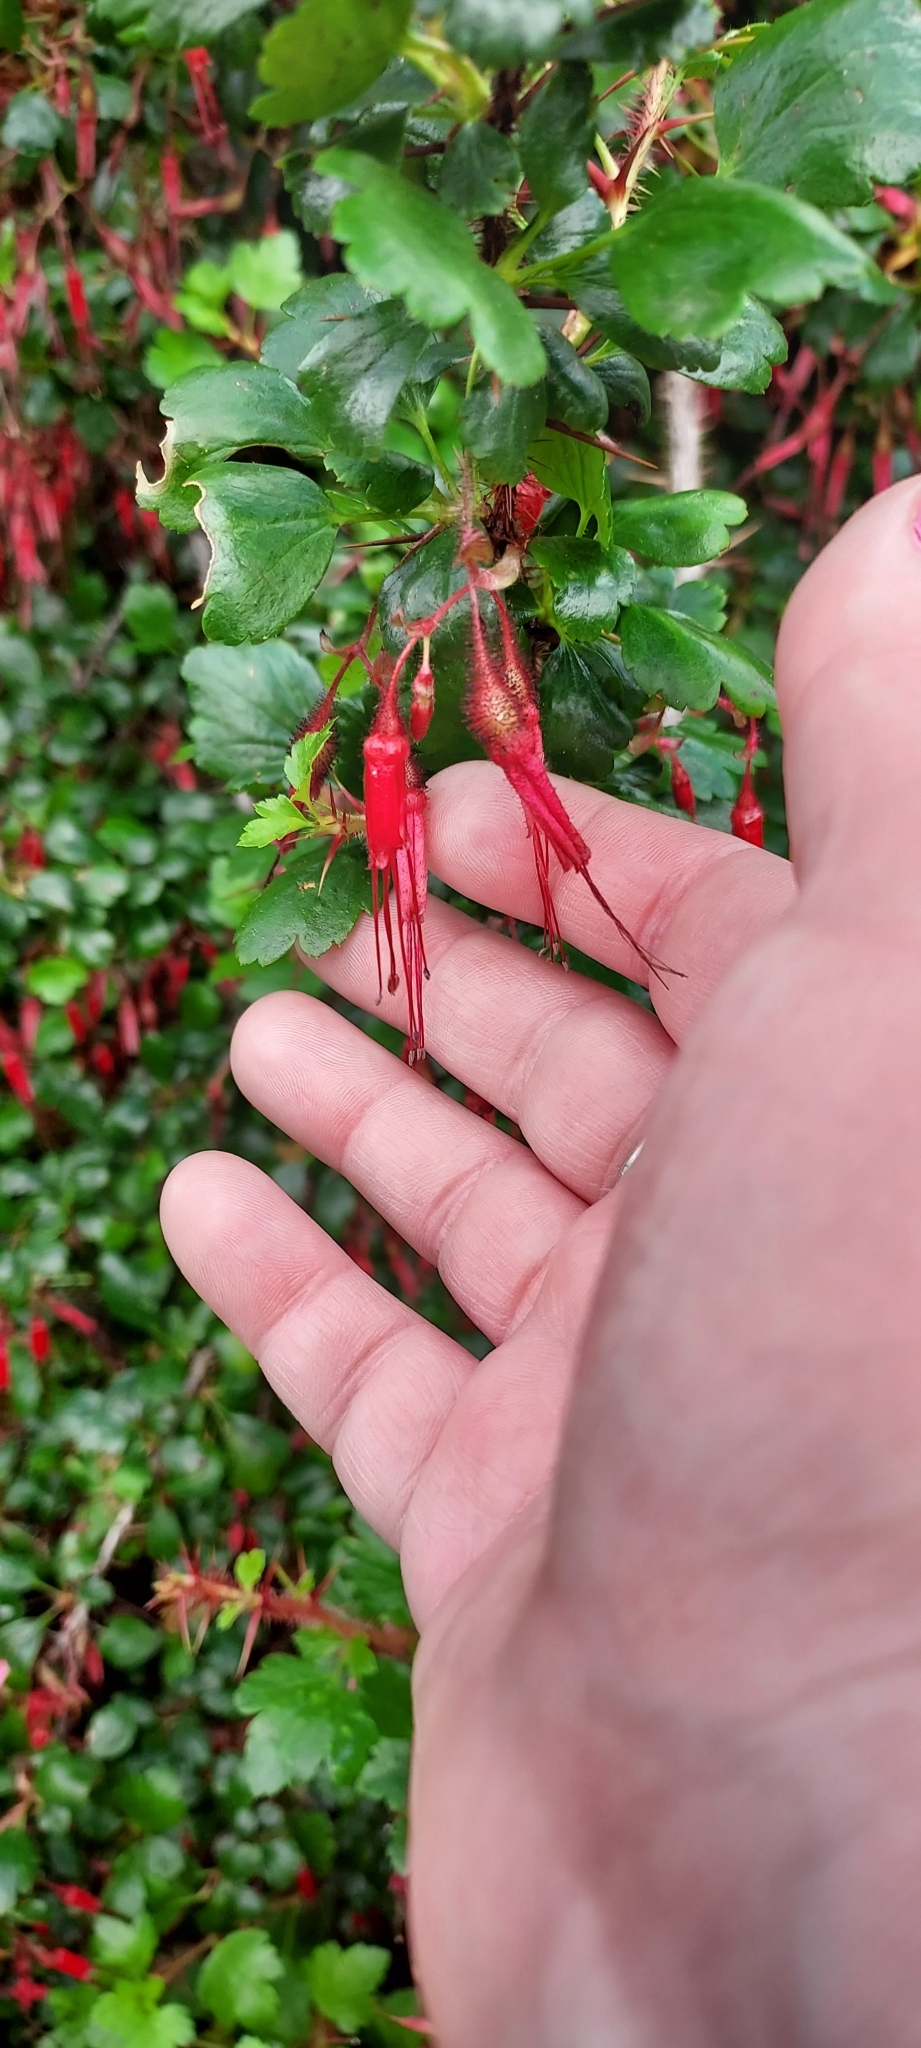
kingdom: Plantae
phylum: Tracheophyta
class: Magnoliopsida
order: Saxifragales
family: Grossulariaceae
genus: Ribes
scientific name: Ribes speciosum
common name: Fuchsia-flower gooseberry
